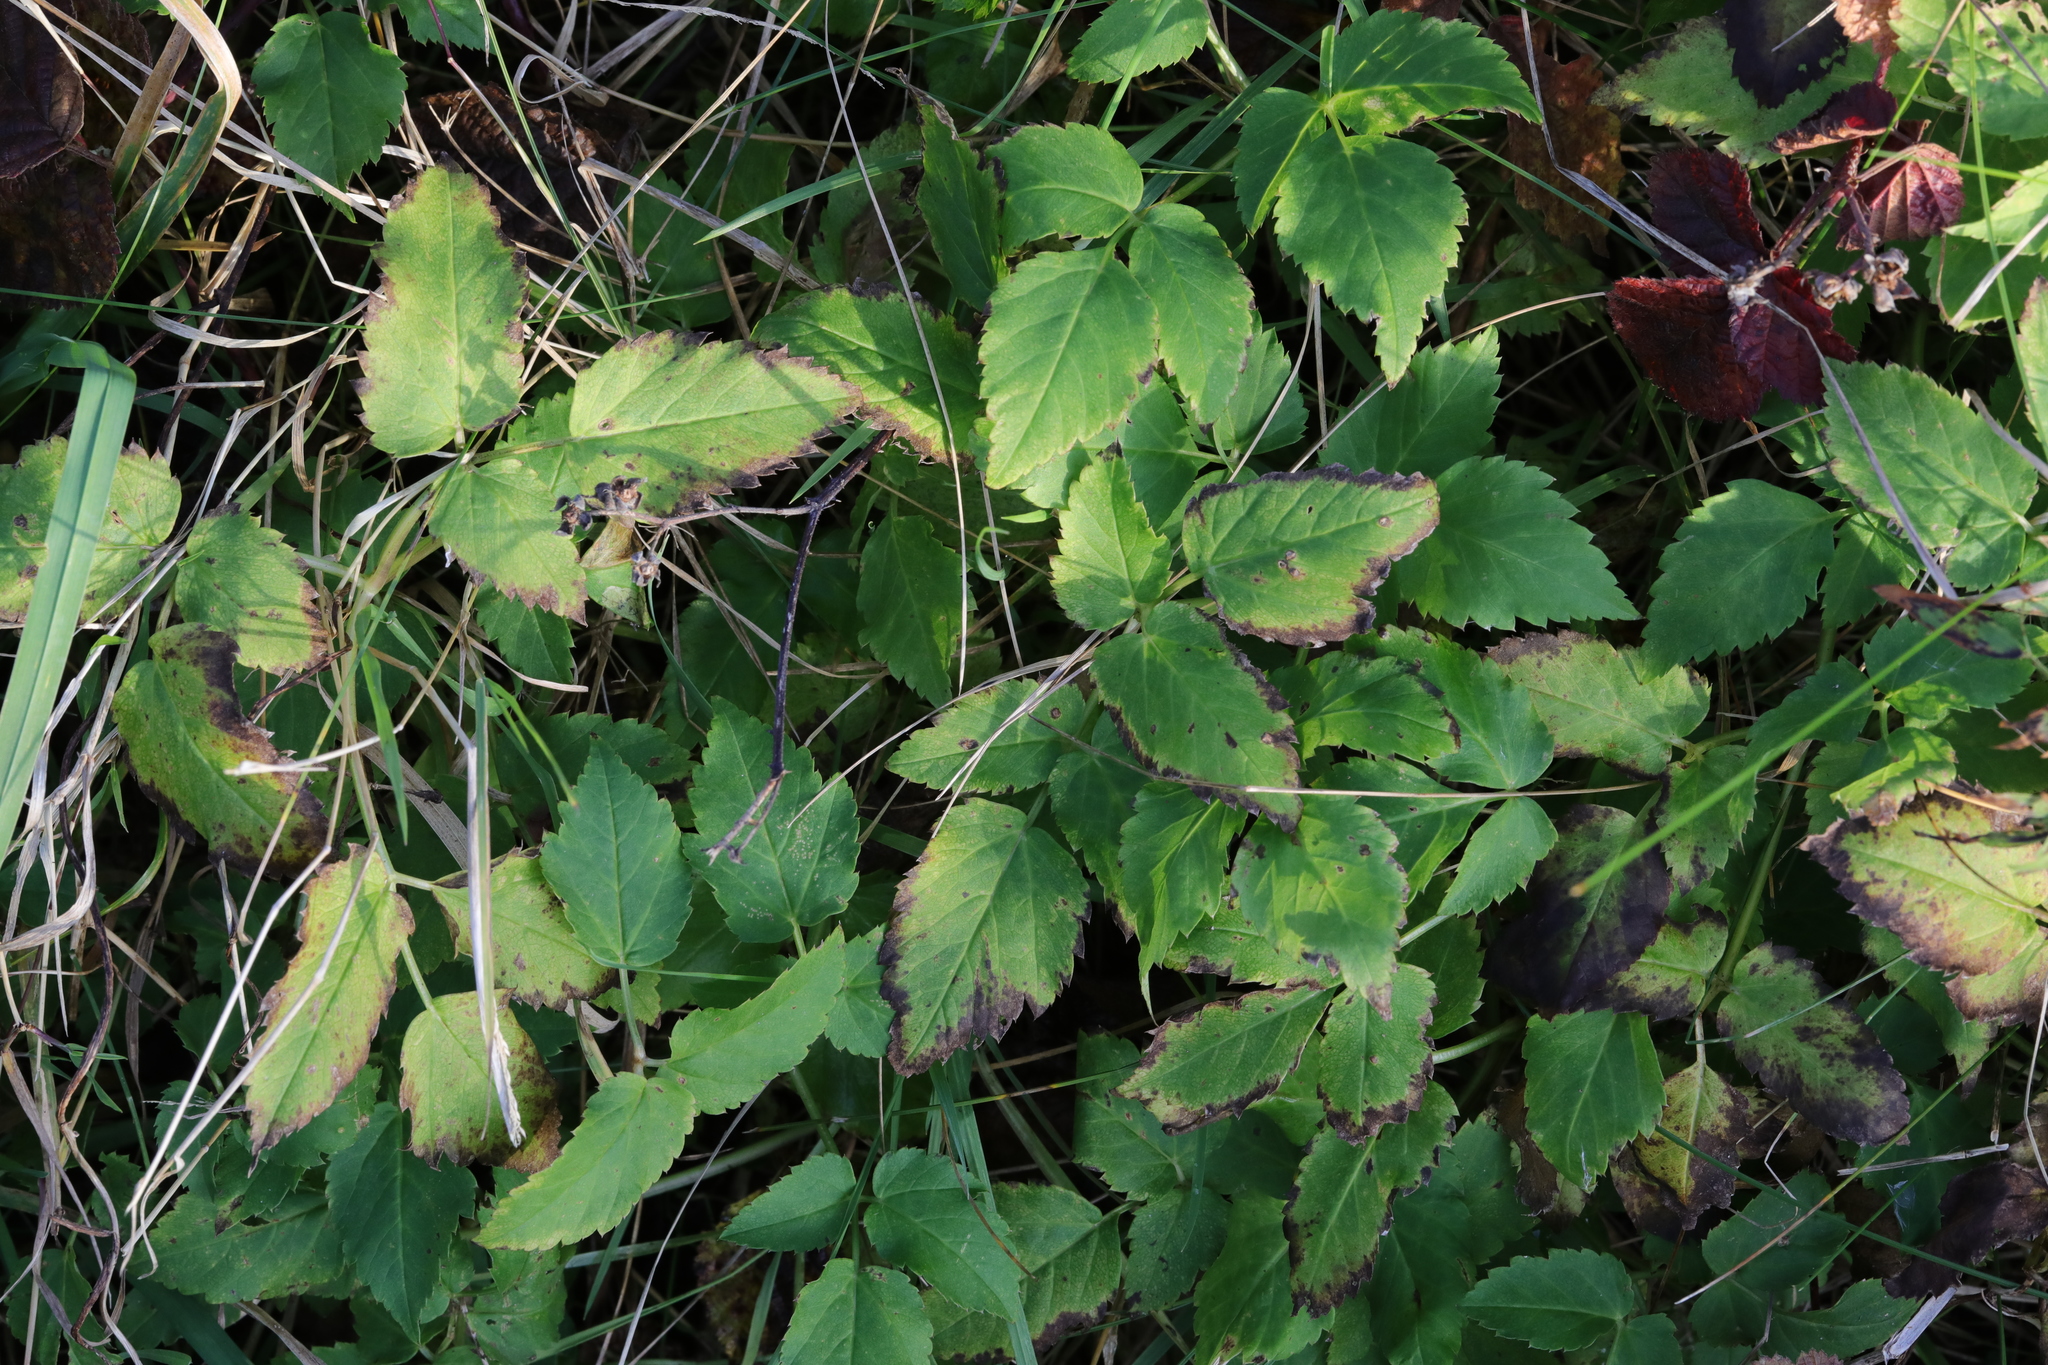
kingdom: Plantae
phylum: Tracheophyta
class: Magnoliopsida
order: Apiales
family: Apiaceae
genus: Aegopodium
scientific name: Aegopodium podagraria
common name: Ground-elder
